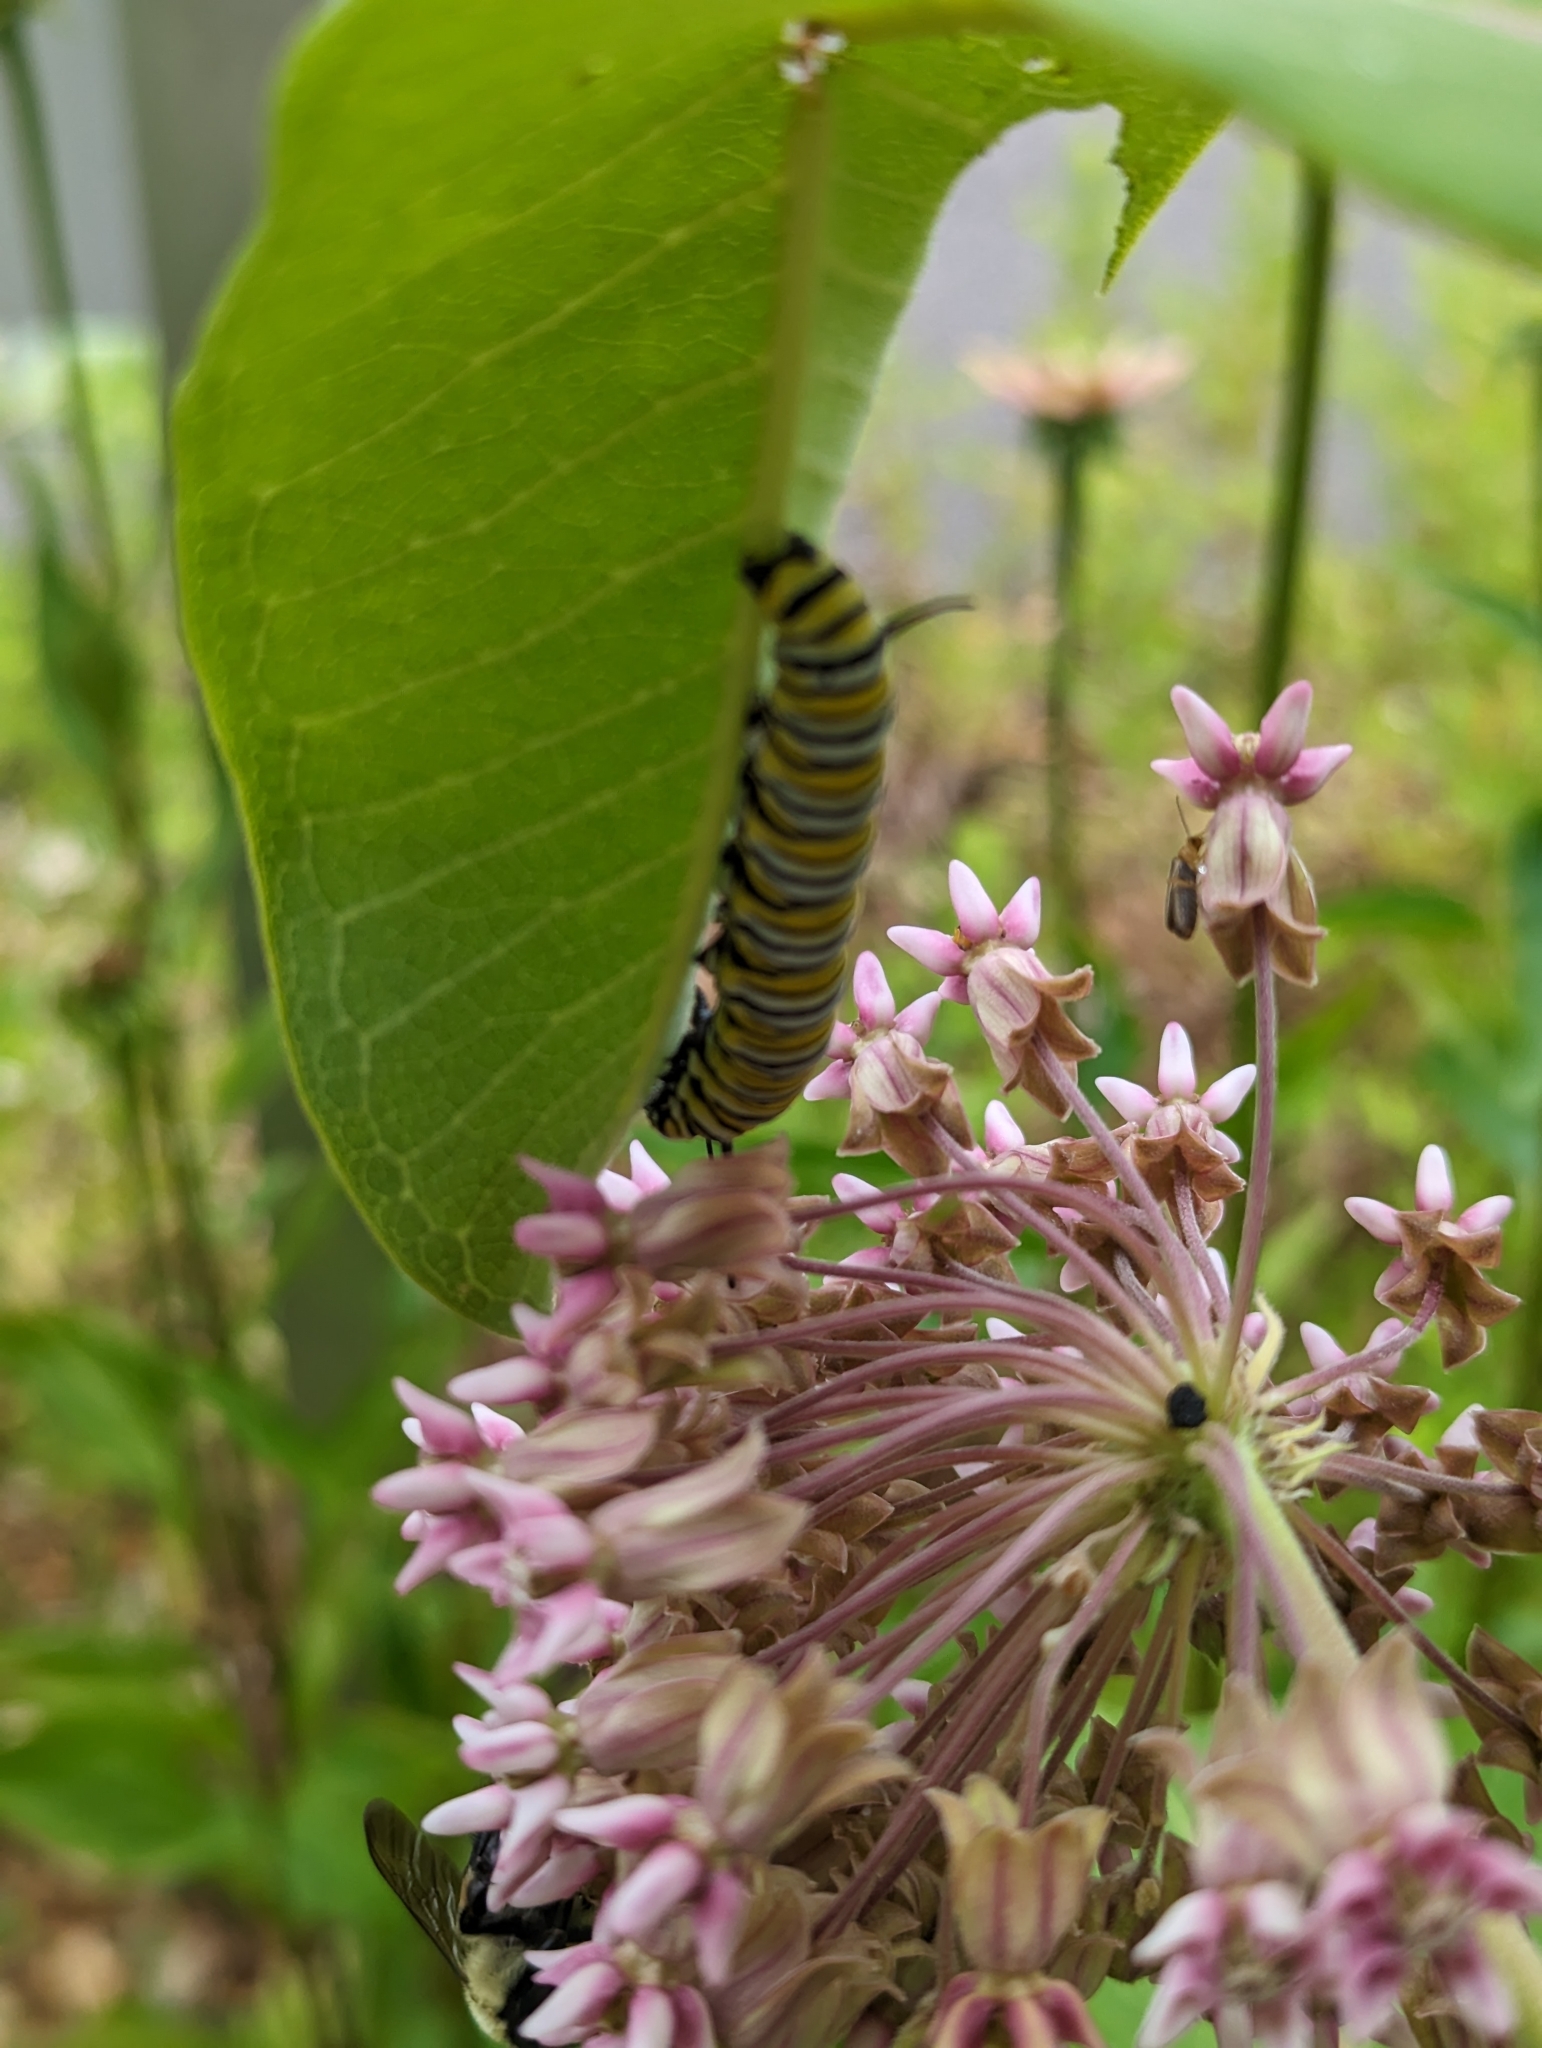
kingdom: Animalia
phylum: Arthropoda
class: Insecta
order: Lepidoptera
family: Nymphalidae
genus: Danaus
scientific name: Danaus plexippus
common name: Monarch
